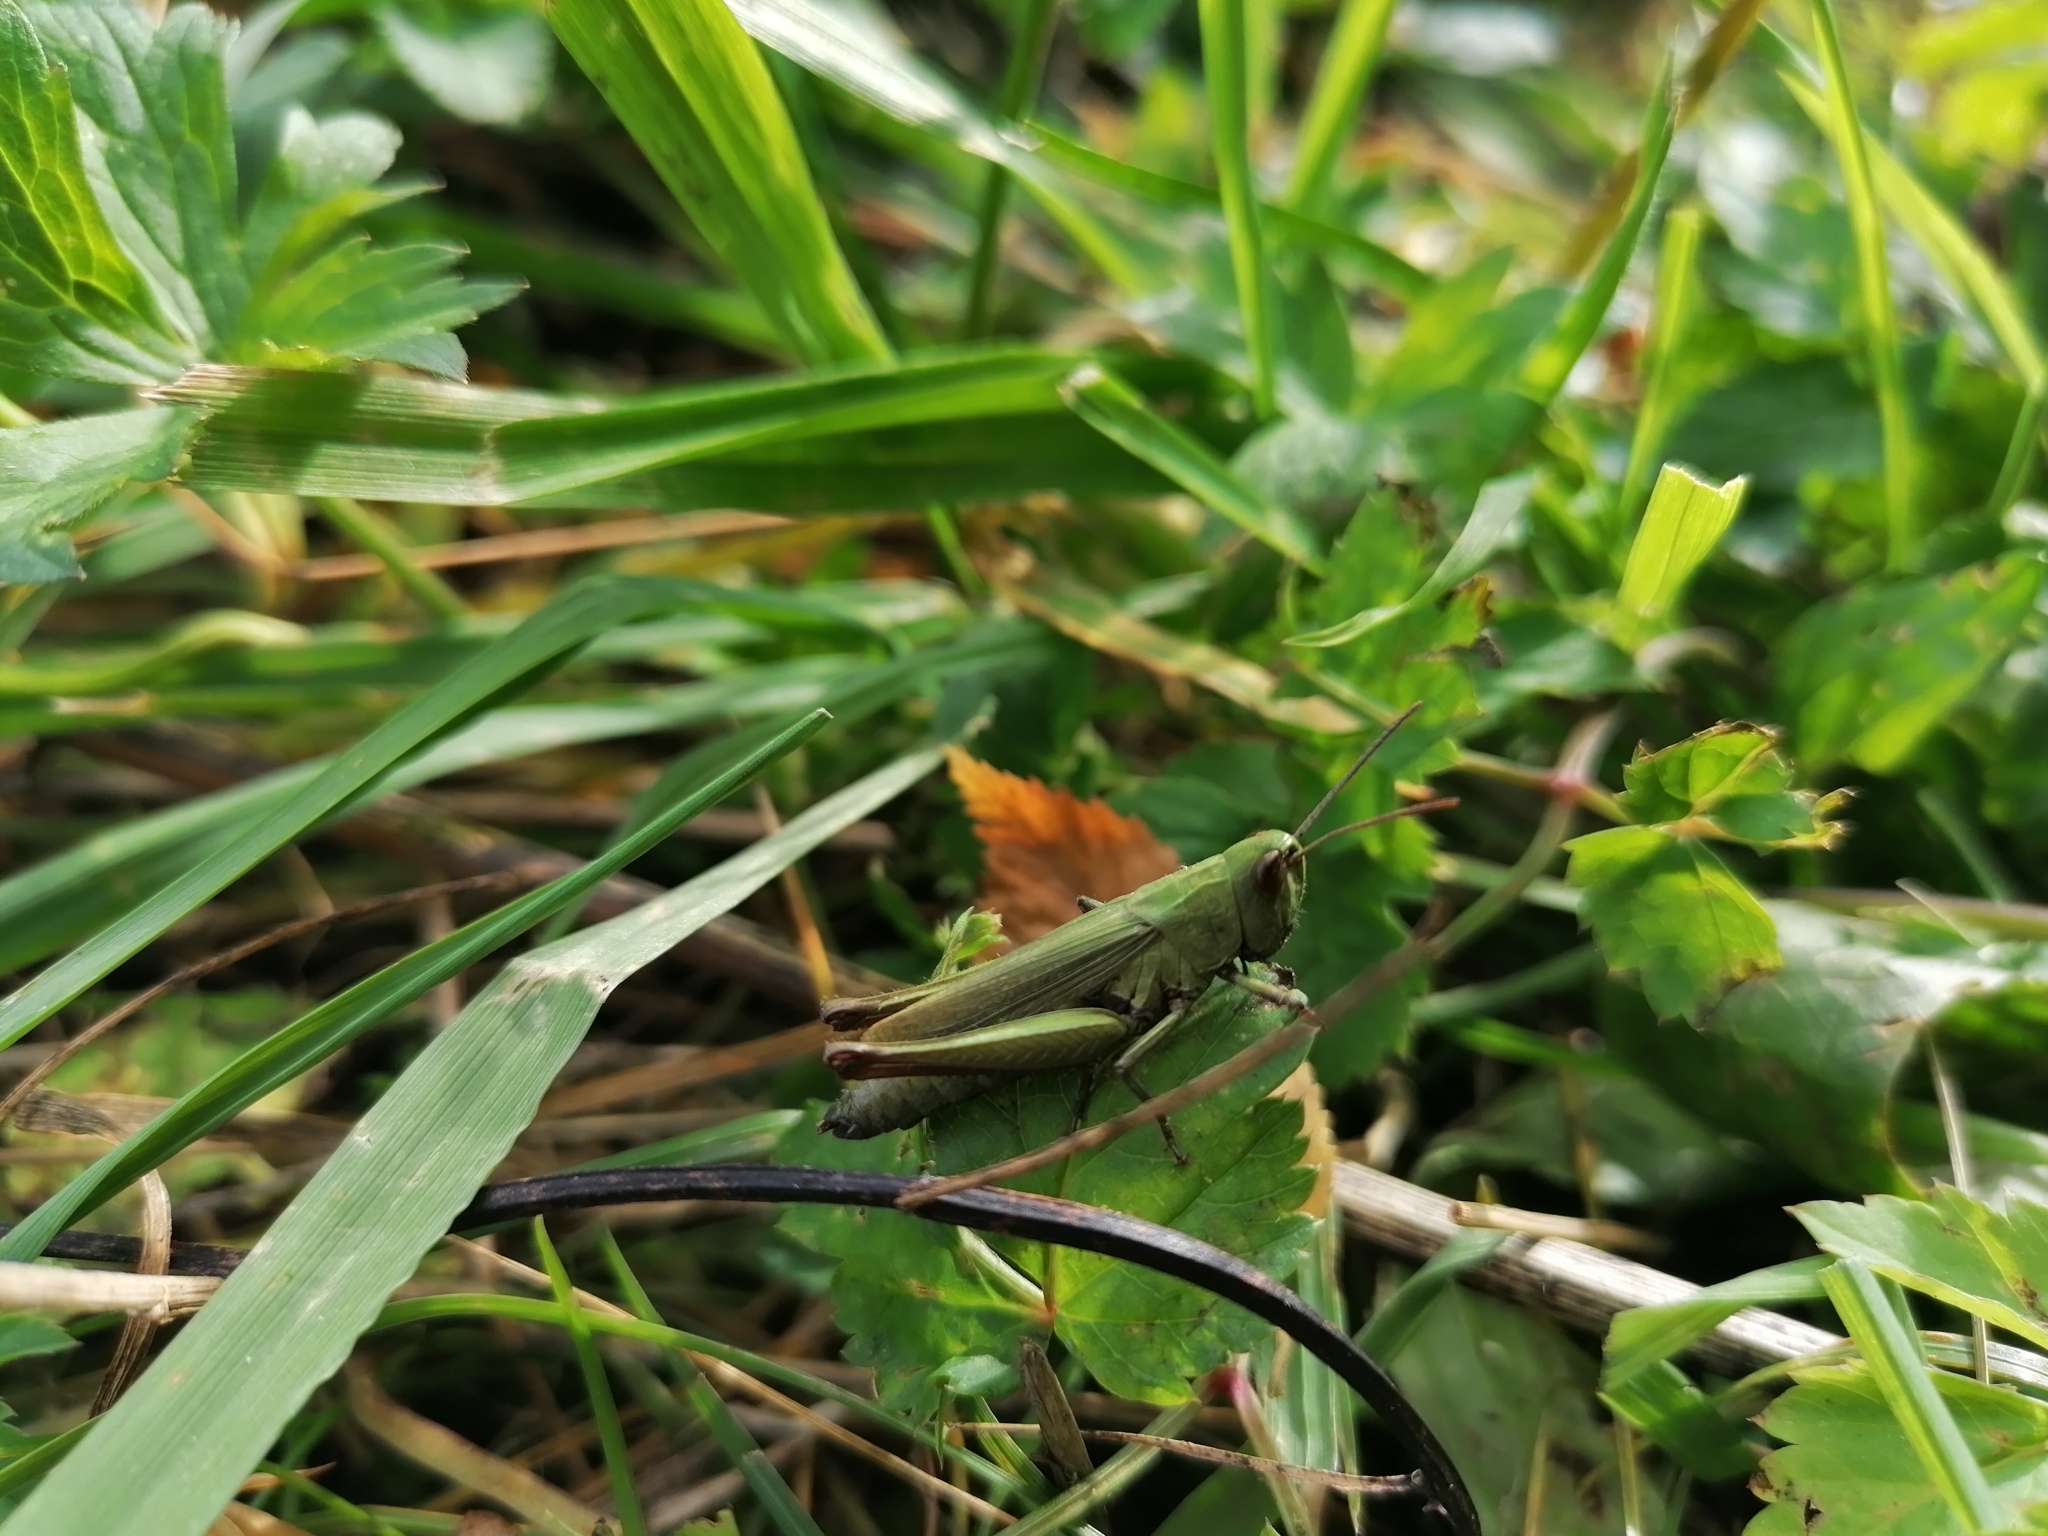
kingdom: Animalia
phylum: Arthropoda
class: Insecta
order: Orthoptera
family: Acrididae
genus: Chorthippus
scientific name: Chorthippus dorsatus
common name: Steppe grasshopper
